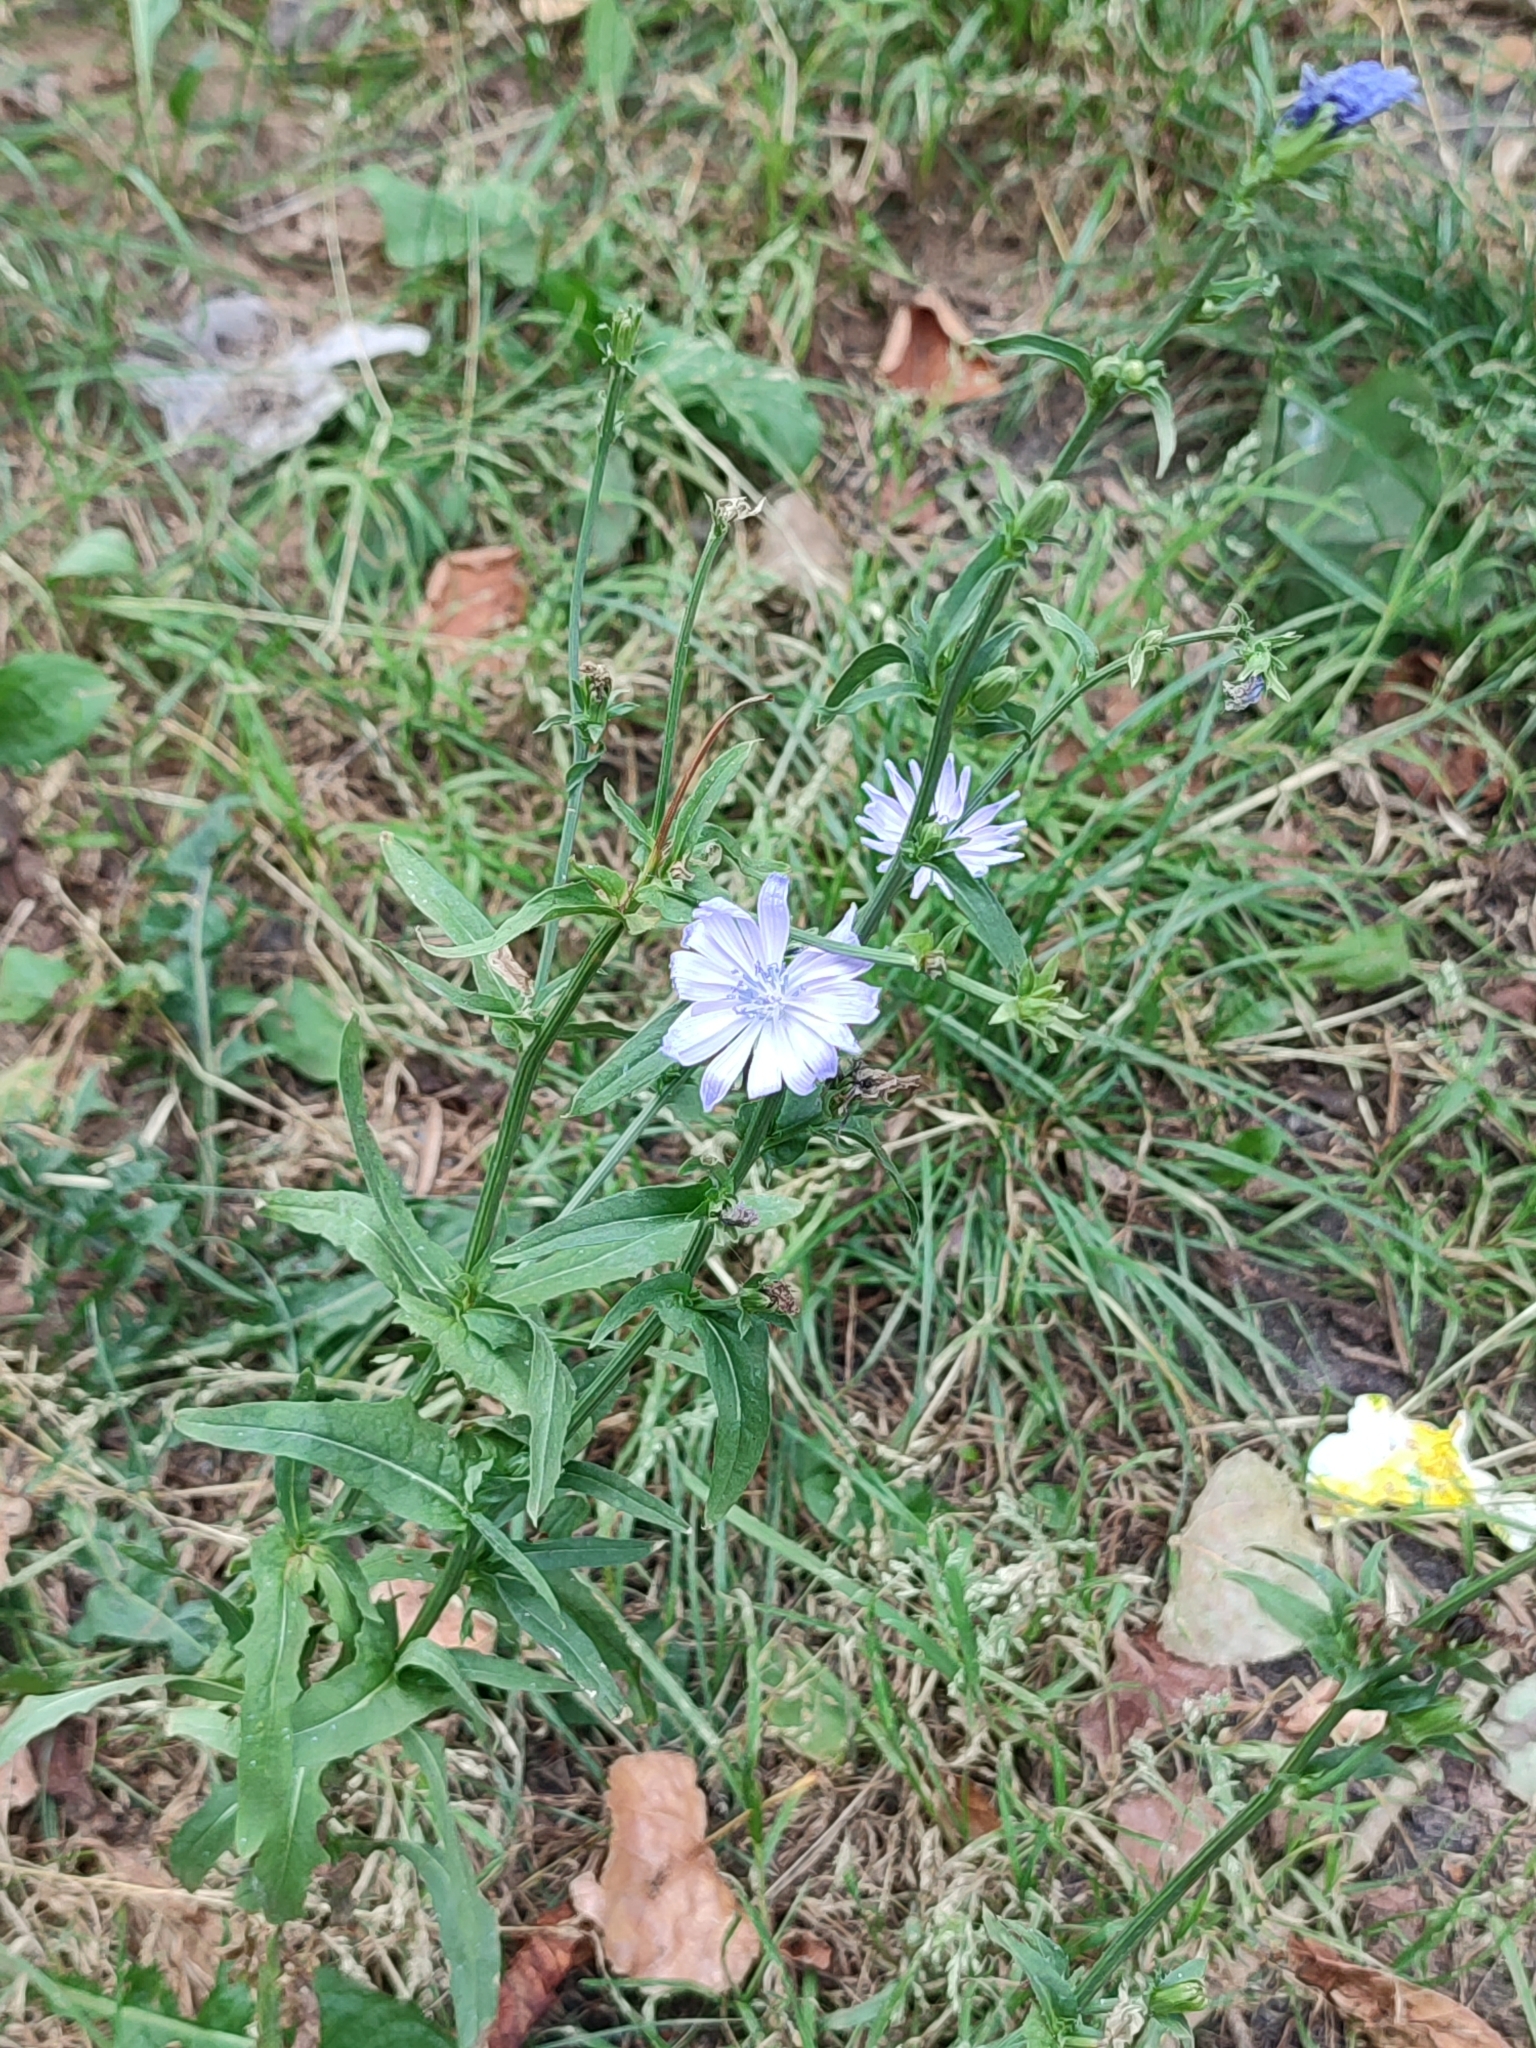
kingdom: Plantae
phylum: Tracheophyta
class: Magnoliopsida
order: Asterales
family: Asteraceae
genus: Cichorium
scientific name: Cichorium intybus
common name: Chicory
